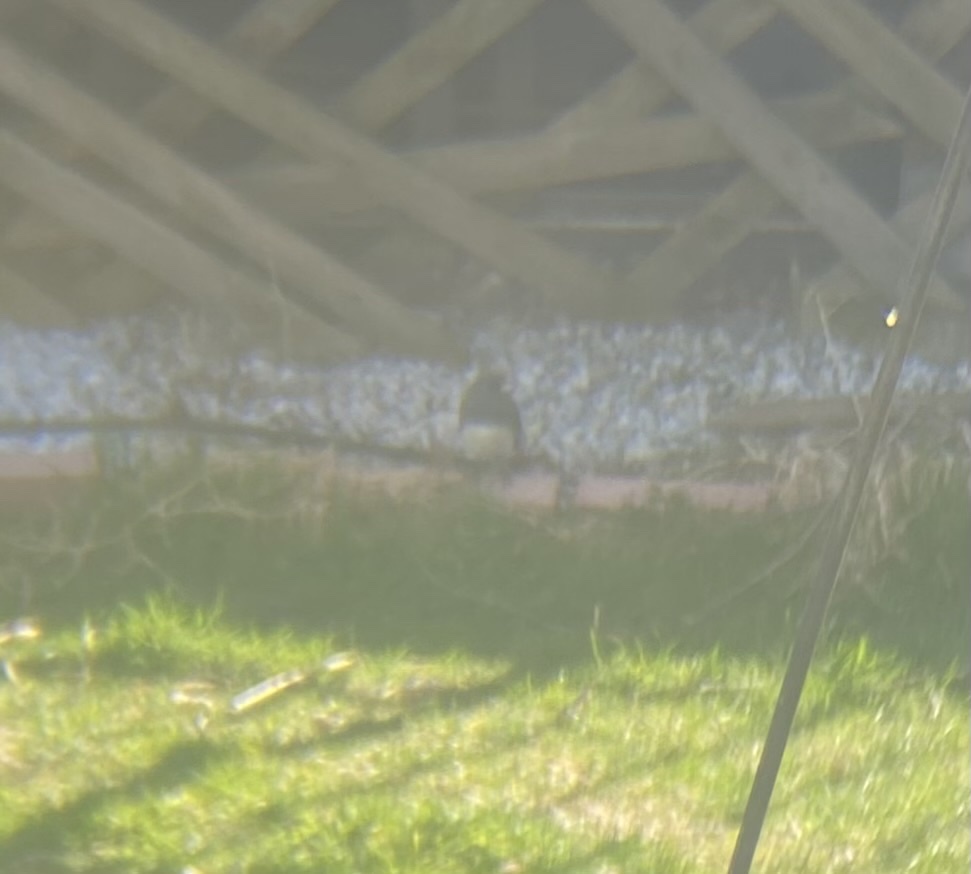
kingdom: Animalia
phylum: Chordata
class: Aves
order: Passeriformes
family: Passerellidae
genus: Junco
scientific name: Junco hyemalis
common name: Dark-eyed junco
